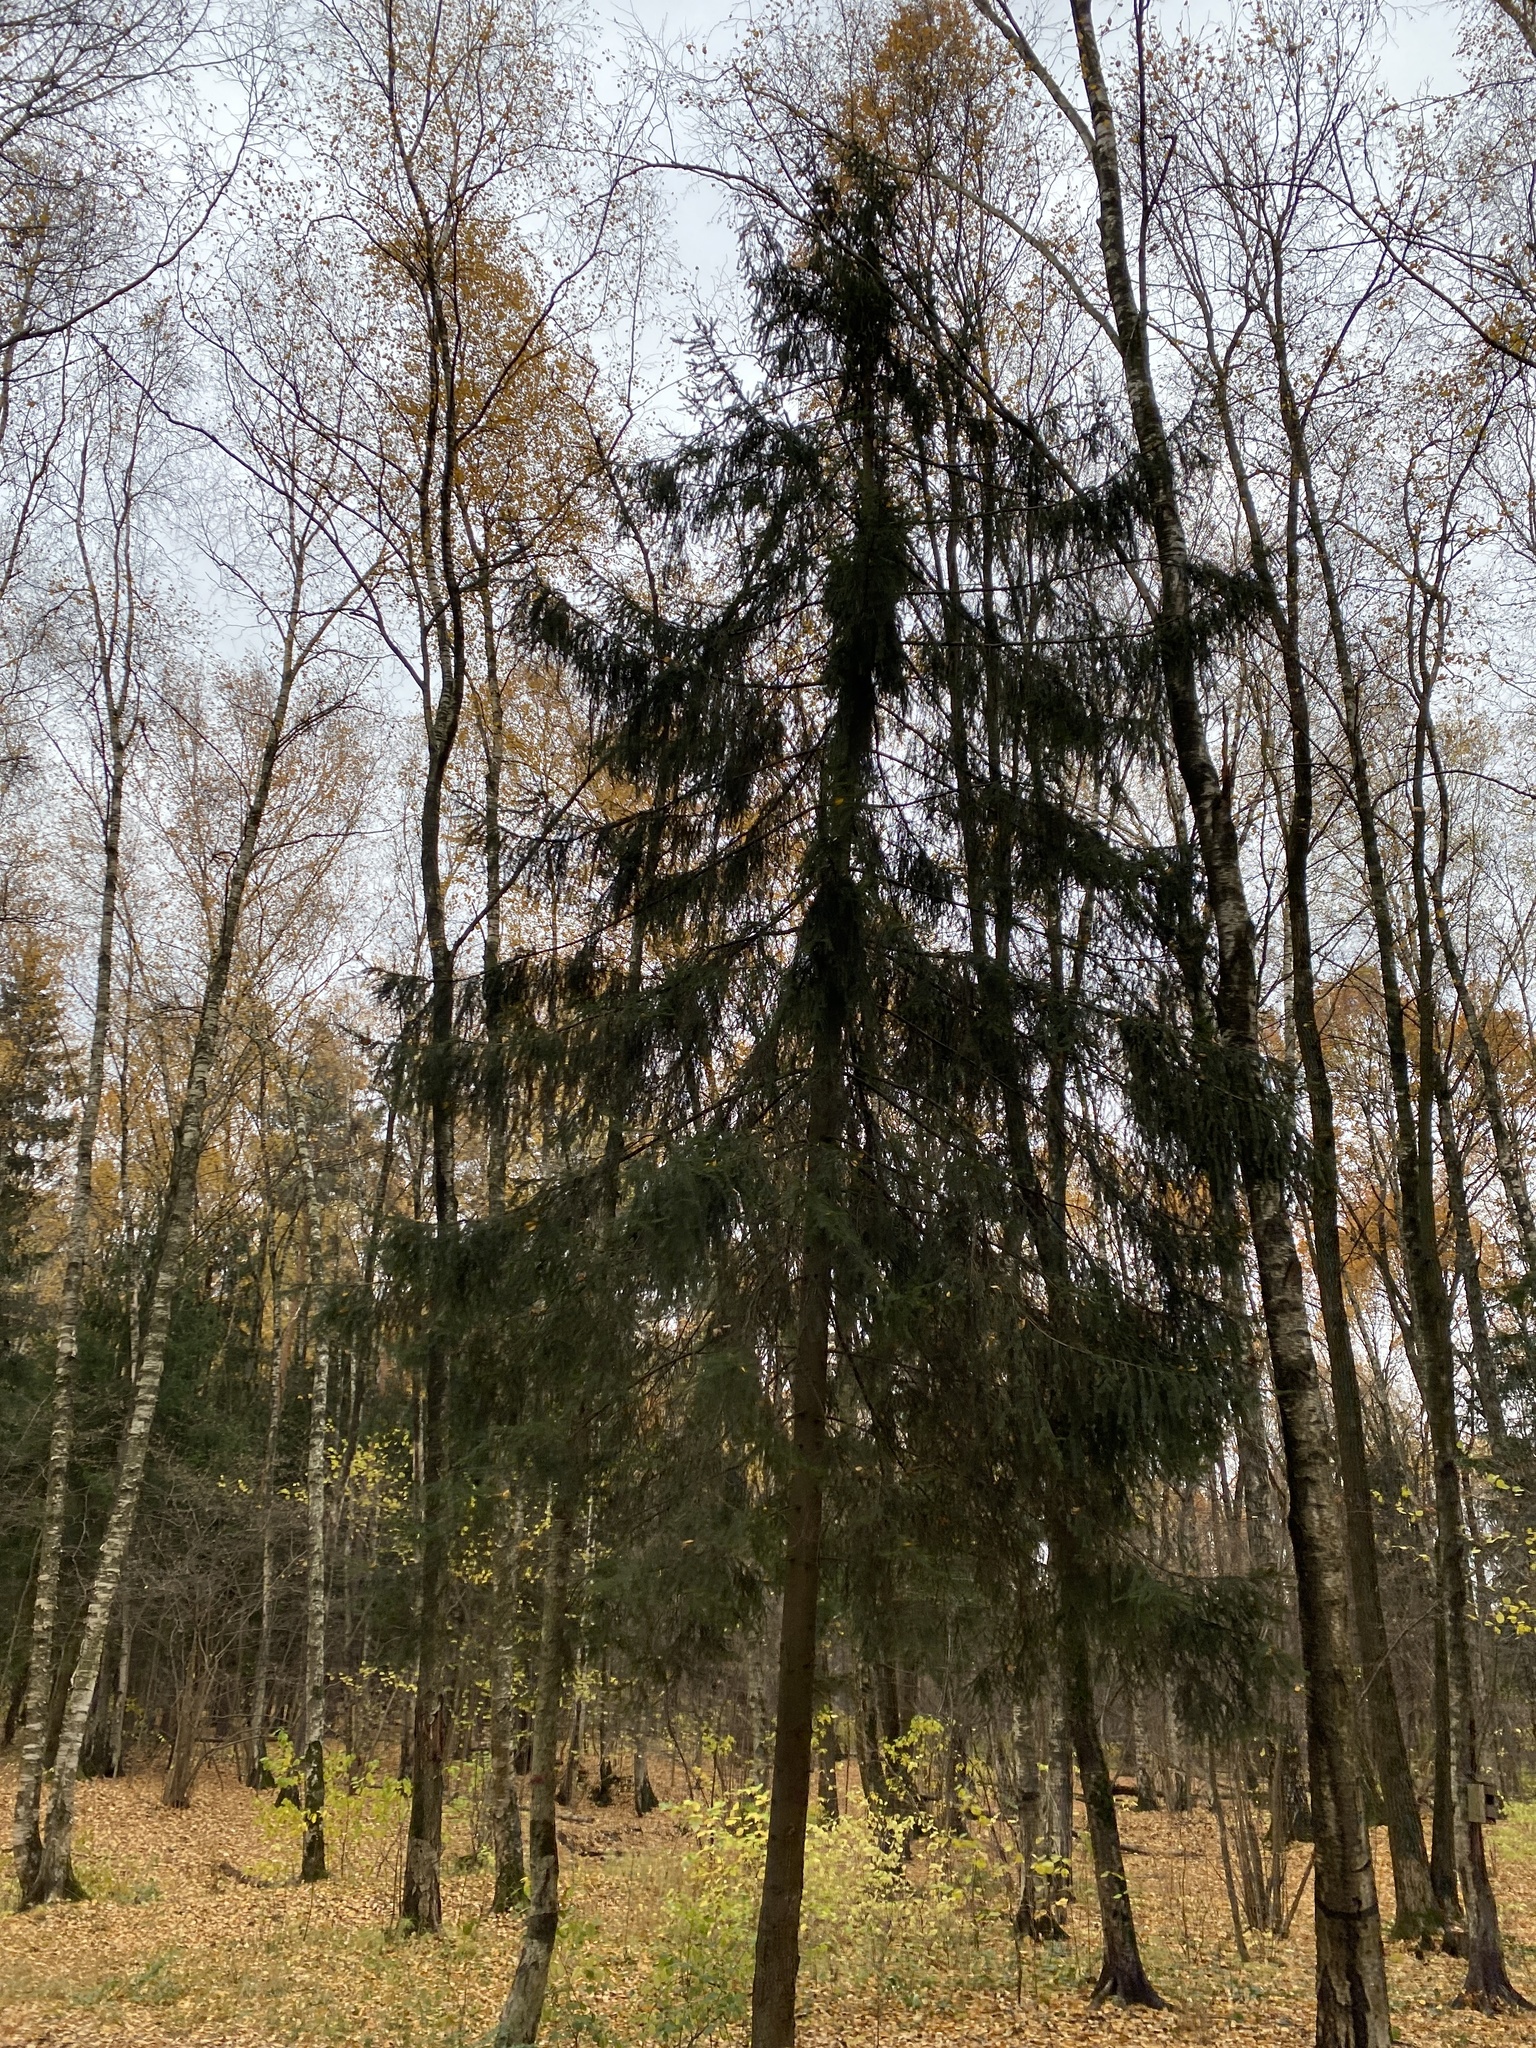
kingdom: Plantae
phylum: Tracheophyta
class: Pinopsida
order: Pinales
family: Pinaceae
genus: Picea
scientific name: Picea abies
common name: Norway spruce
